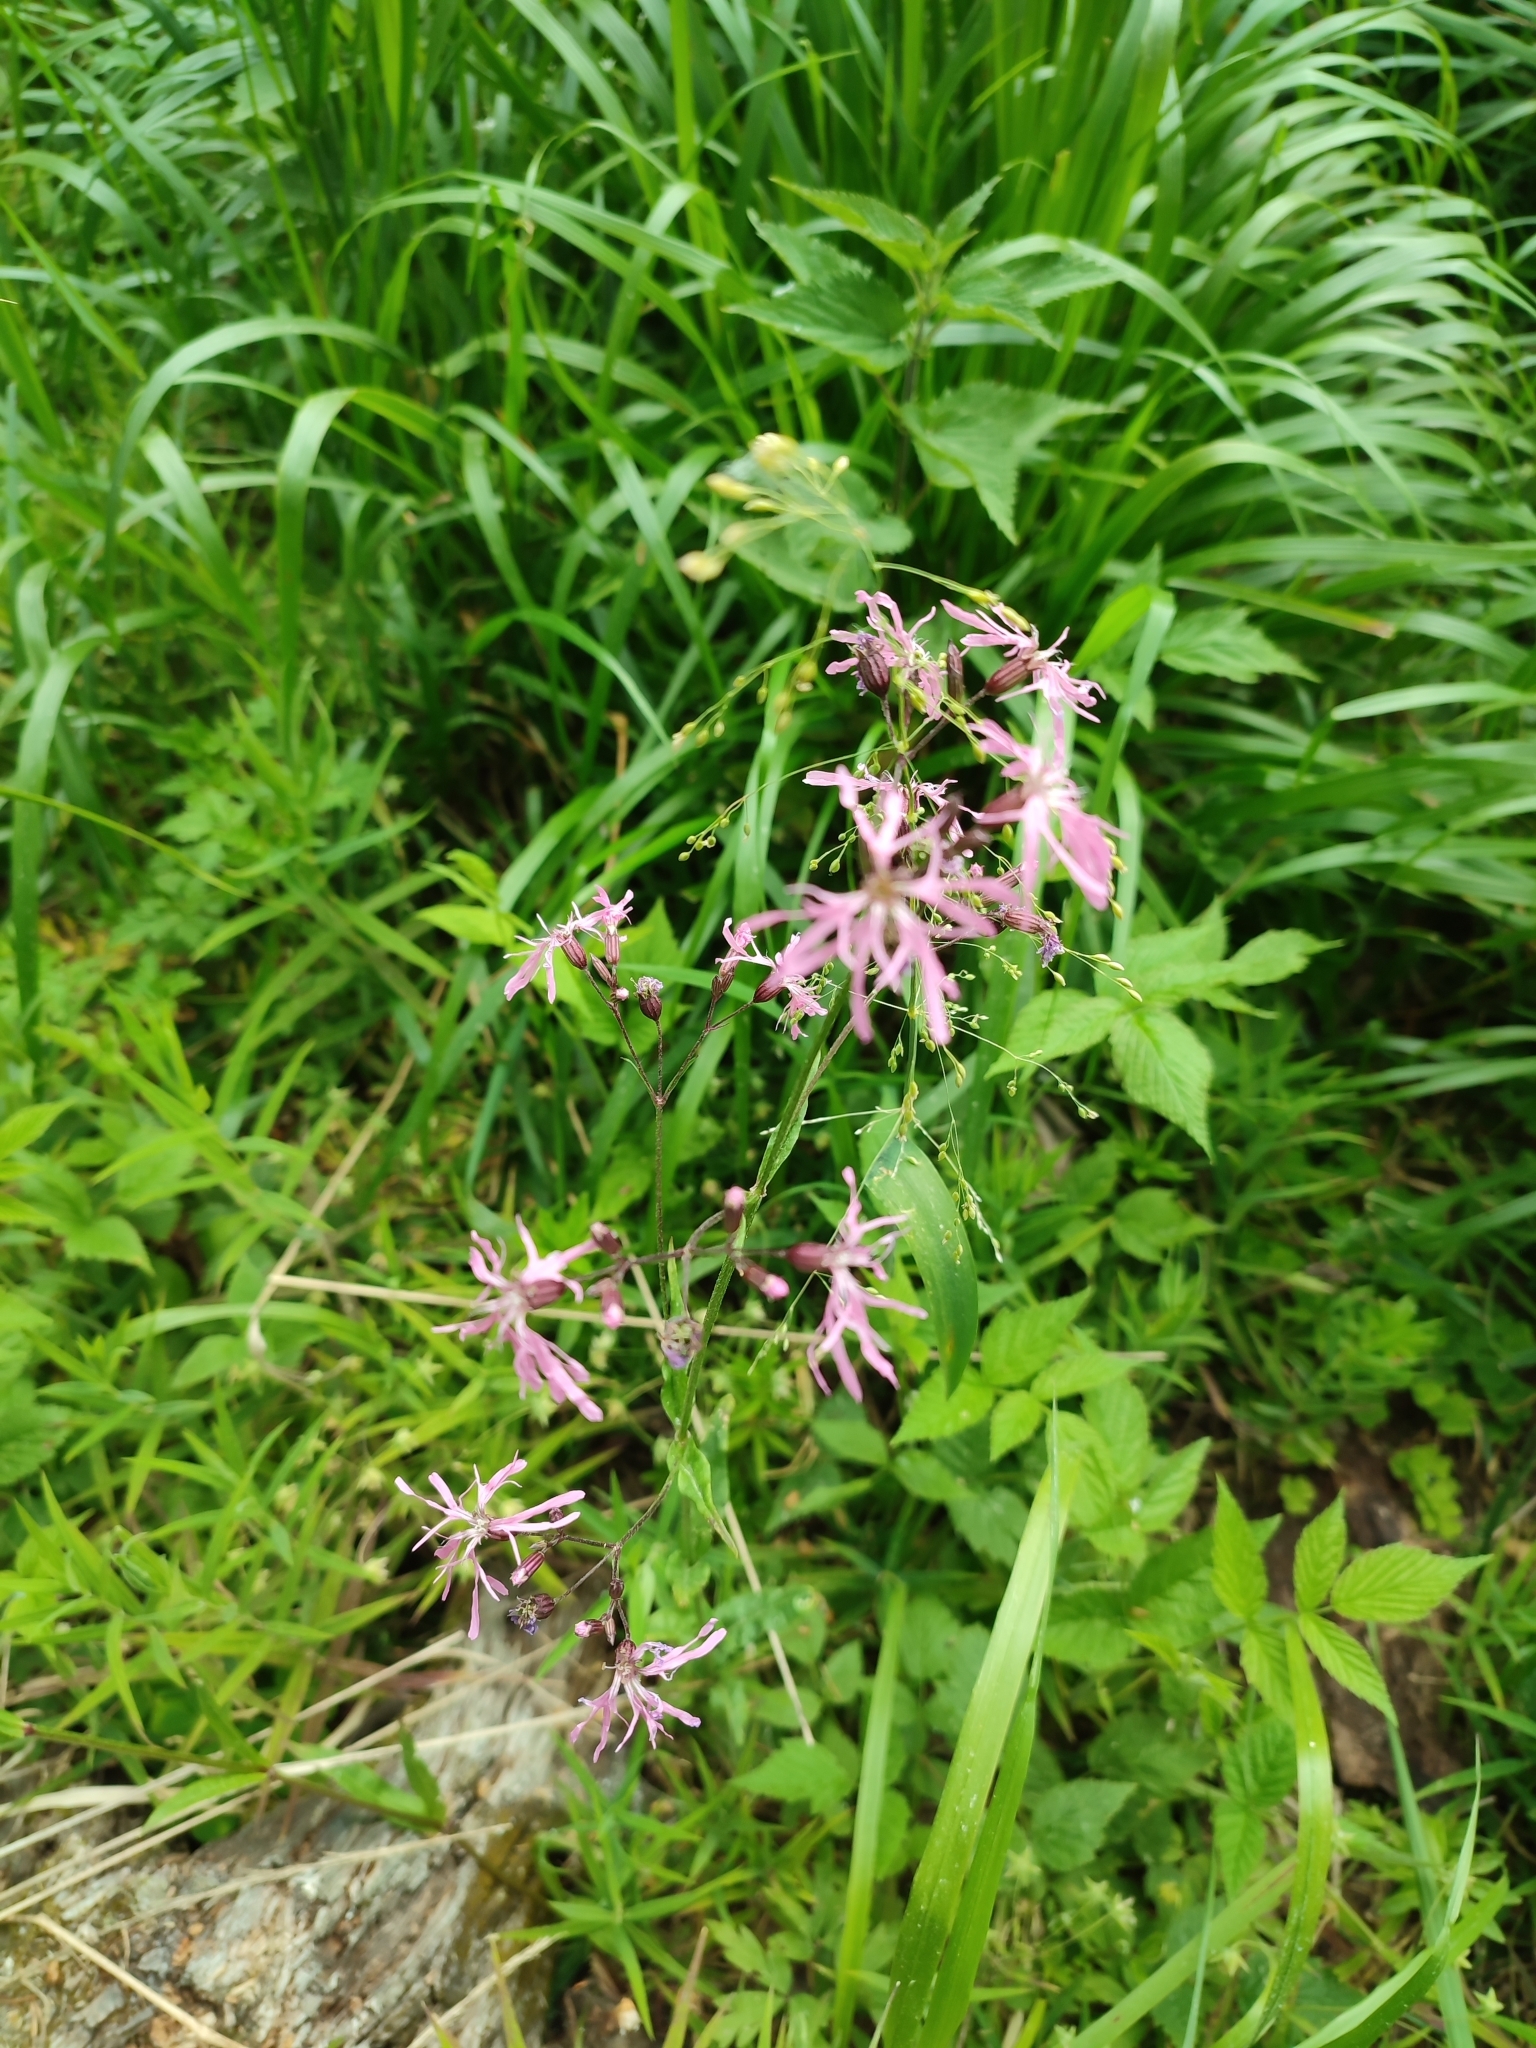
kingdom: Plantae
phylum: Tracheophyta
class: Magnoliopsida
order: Caryophyllales
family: Caryophyllaceae
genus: Silene
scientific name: Silene flos-cuculi
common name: Ragged-robin
